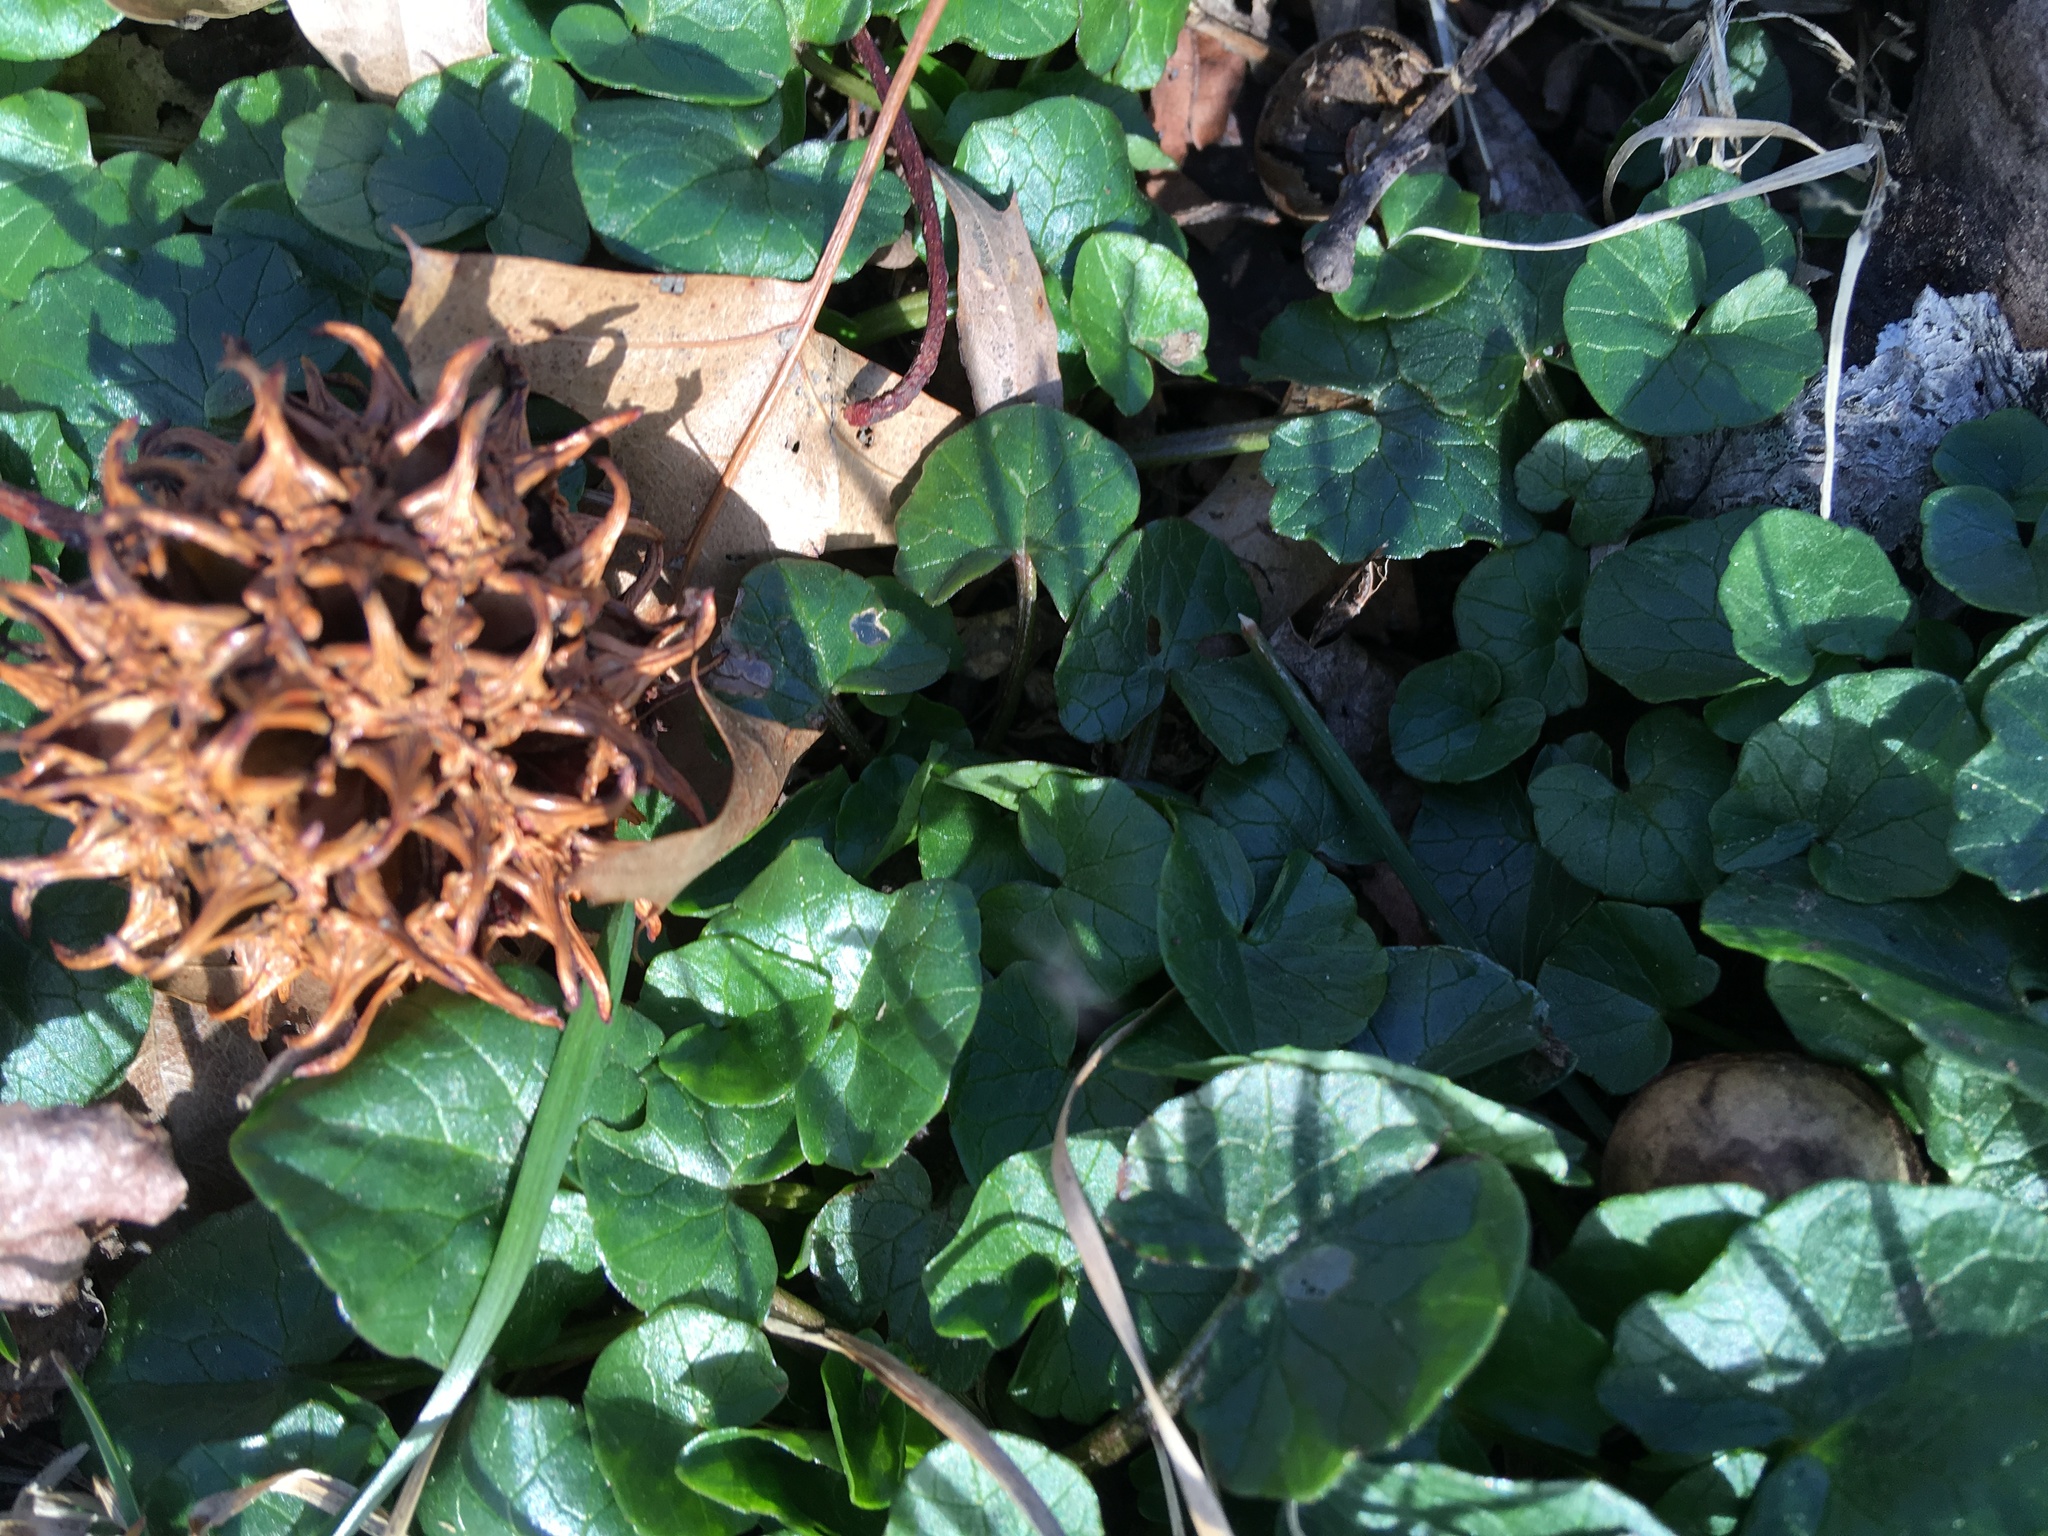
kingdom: Plantae
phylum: Tracheophyta
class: Magnoliopsida
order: Ranunculales
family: Ranunculaceae
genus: Ficaria
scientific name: Ficaria verna
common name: Lesser celandine
